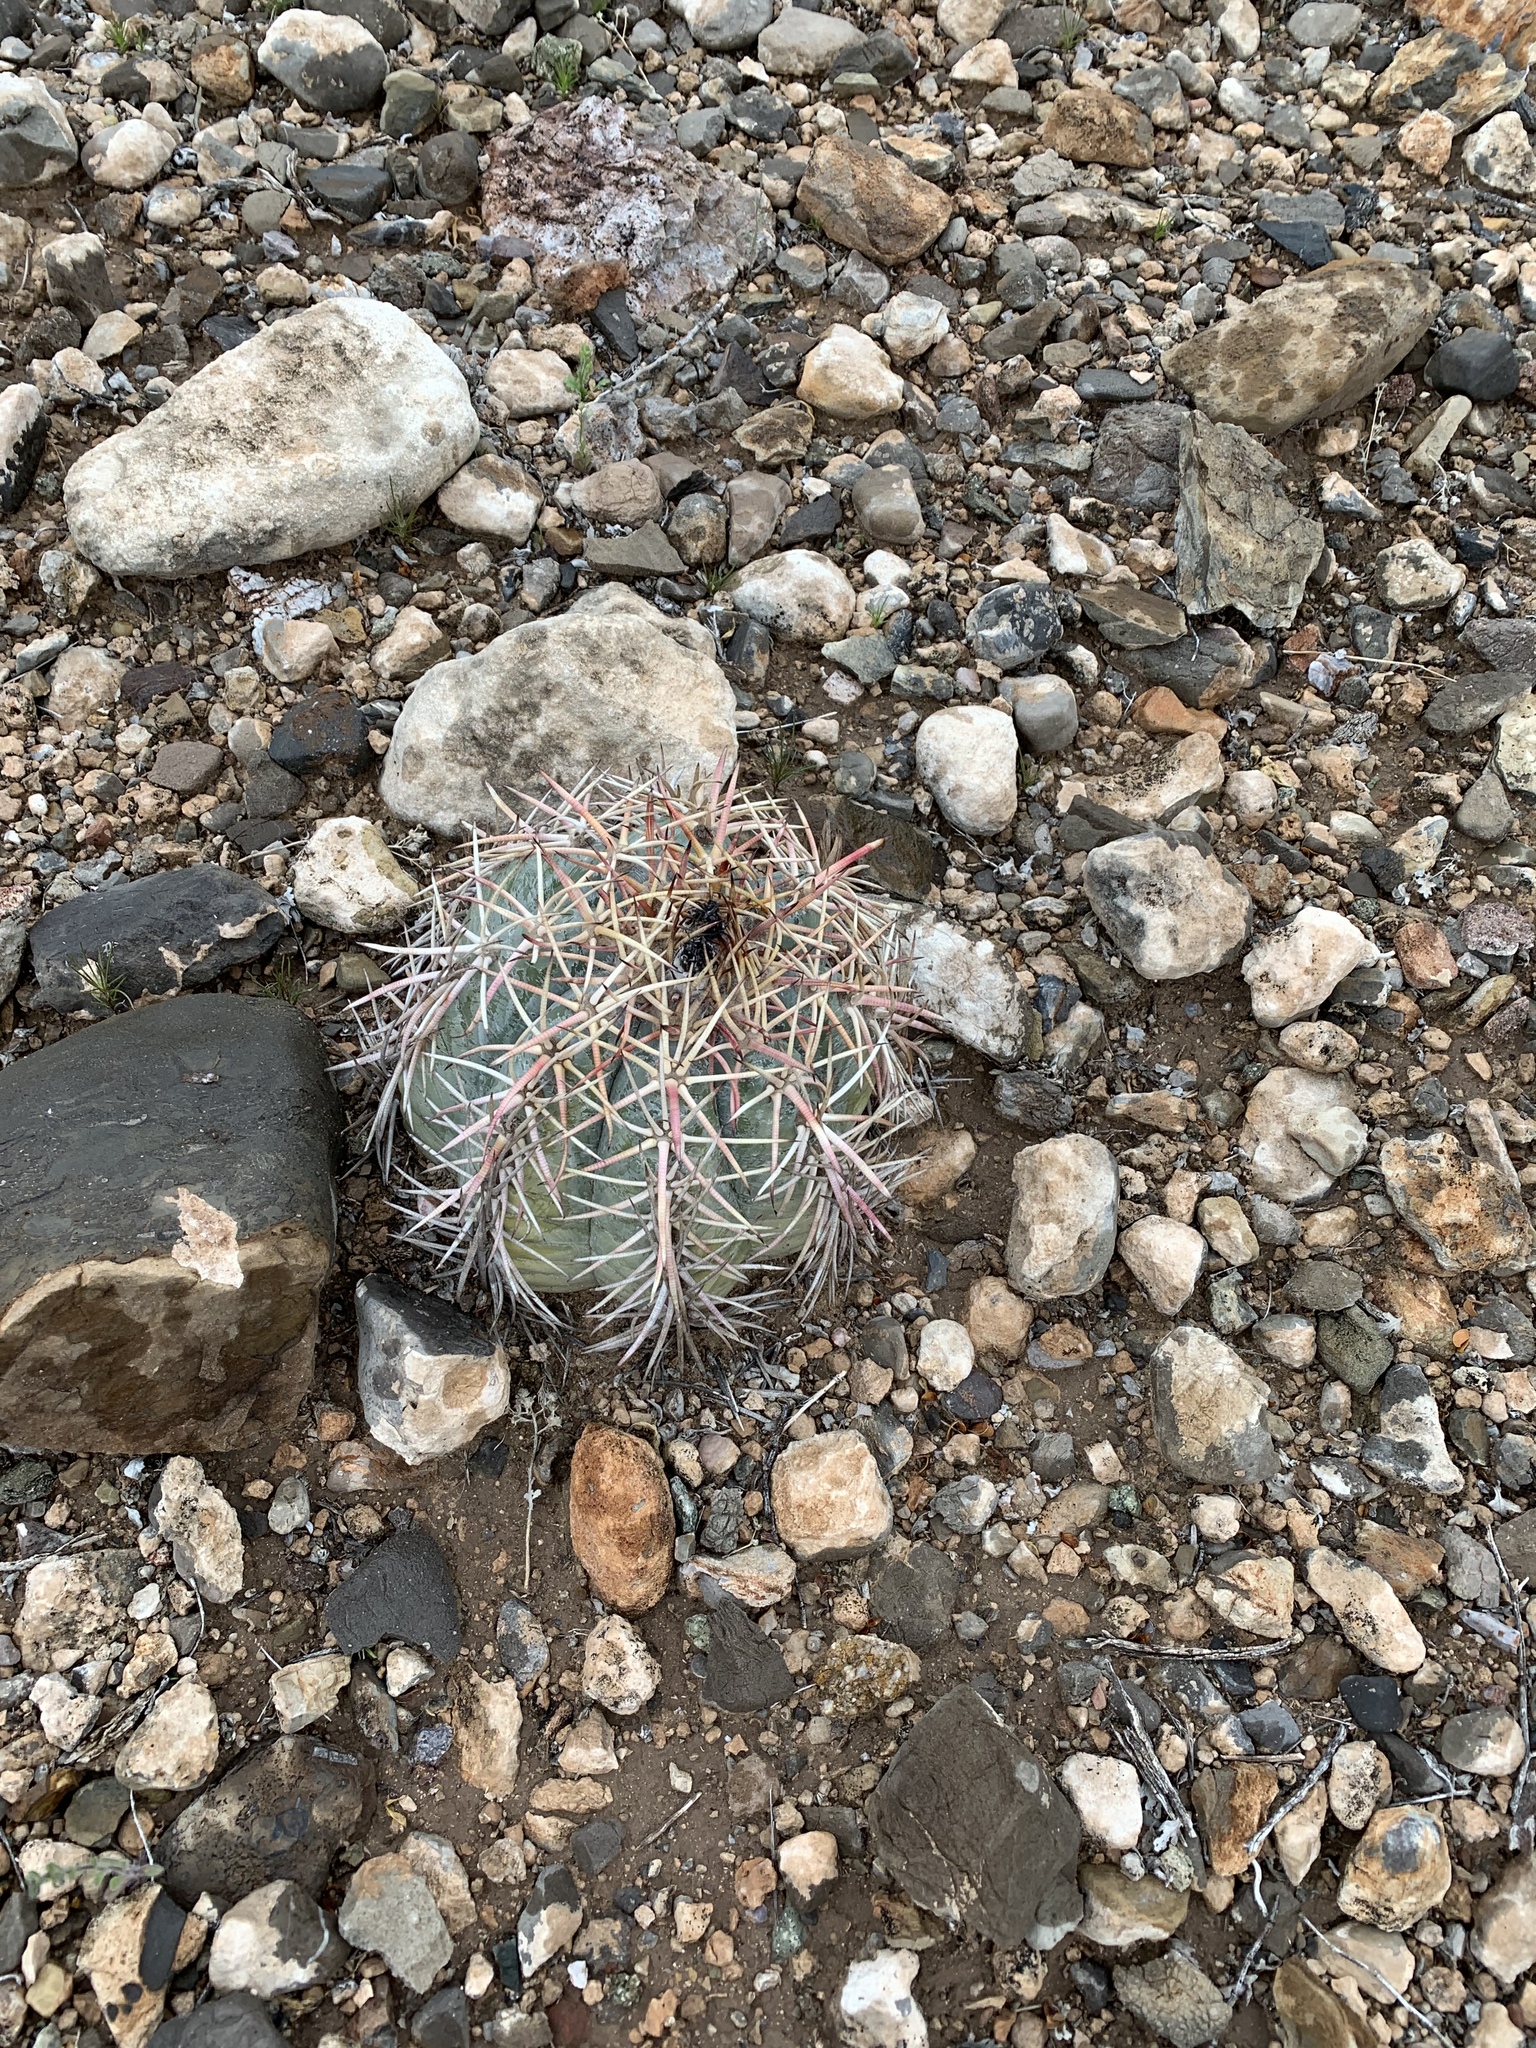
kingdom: Plantae
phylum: Tracheophyta
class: Magnoliopsida
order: Caryophyllales
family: Cactaceae
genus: Echinocactus
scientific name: Echinocactus horizonthalonius
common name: Devilshead
